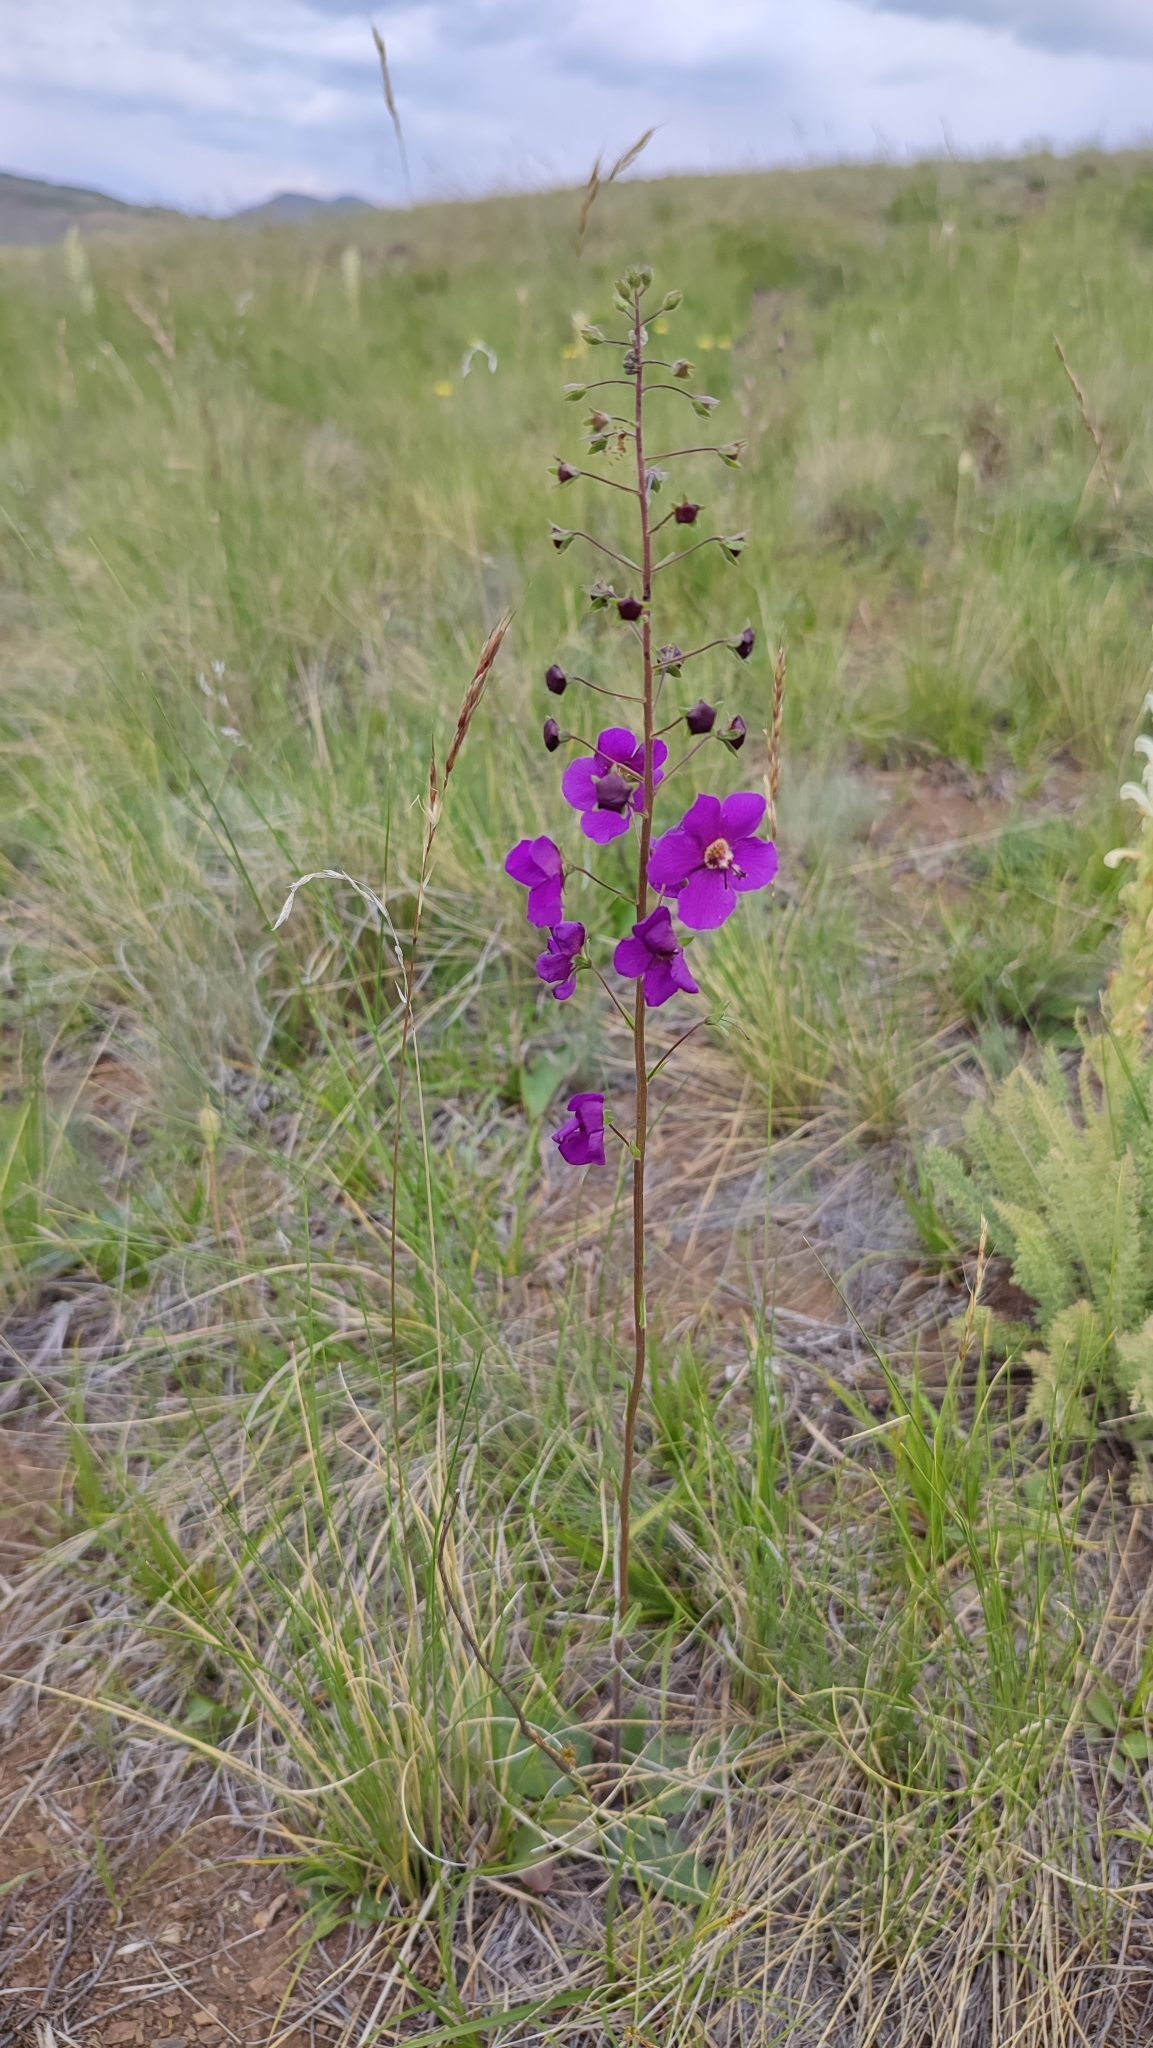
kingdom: Plantae
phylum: Tracheophyta
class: Magnoliopsida
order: Lamiales
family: Scrophulariaceae
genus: Verbascum
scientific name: Verbascum phoeniceum
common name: Purple mullein
